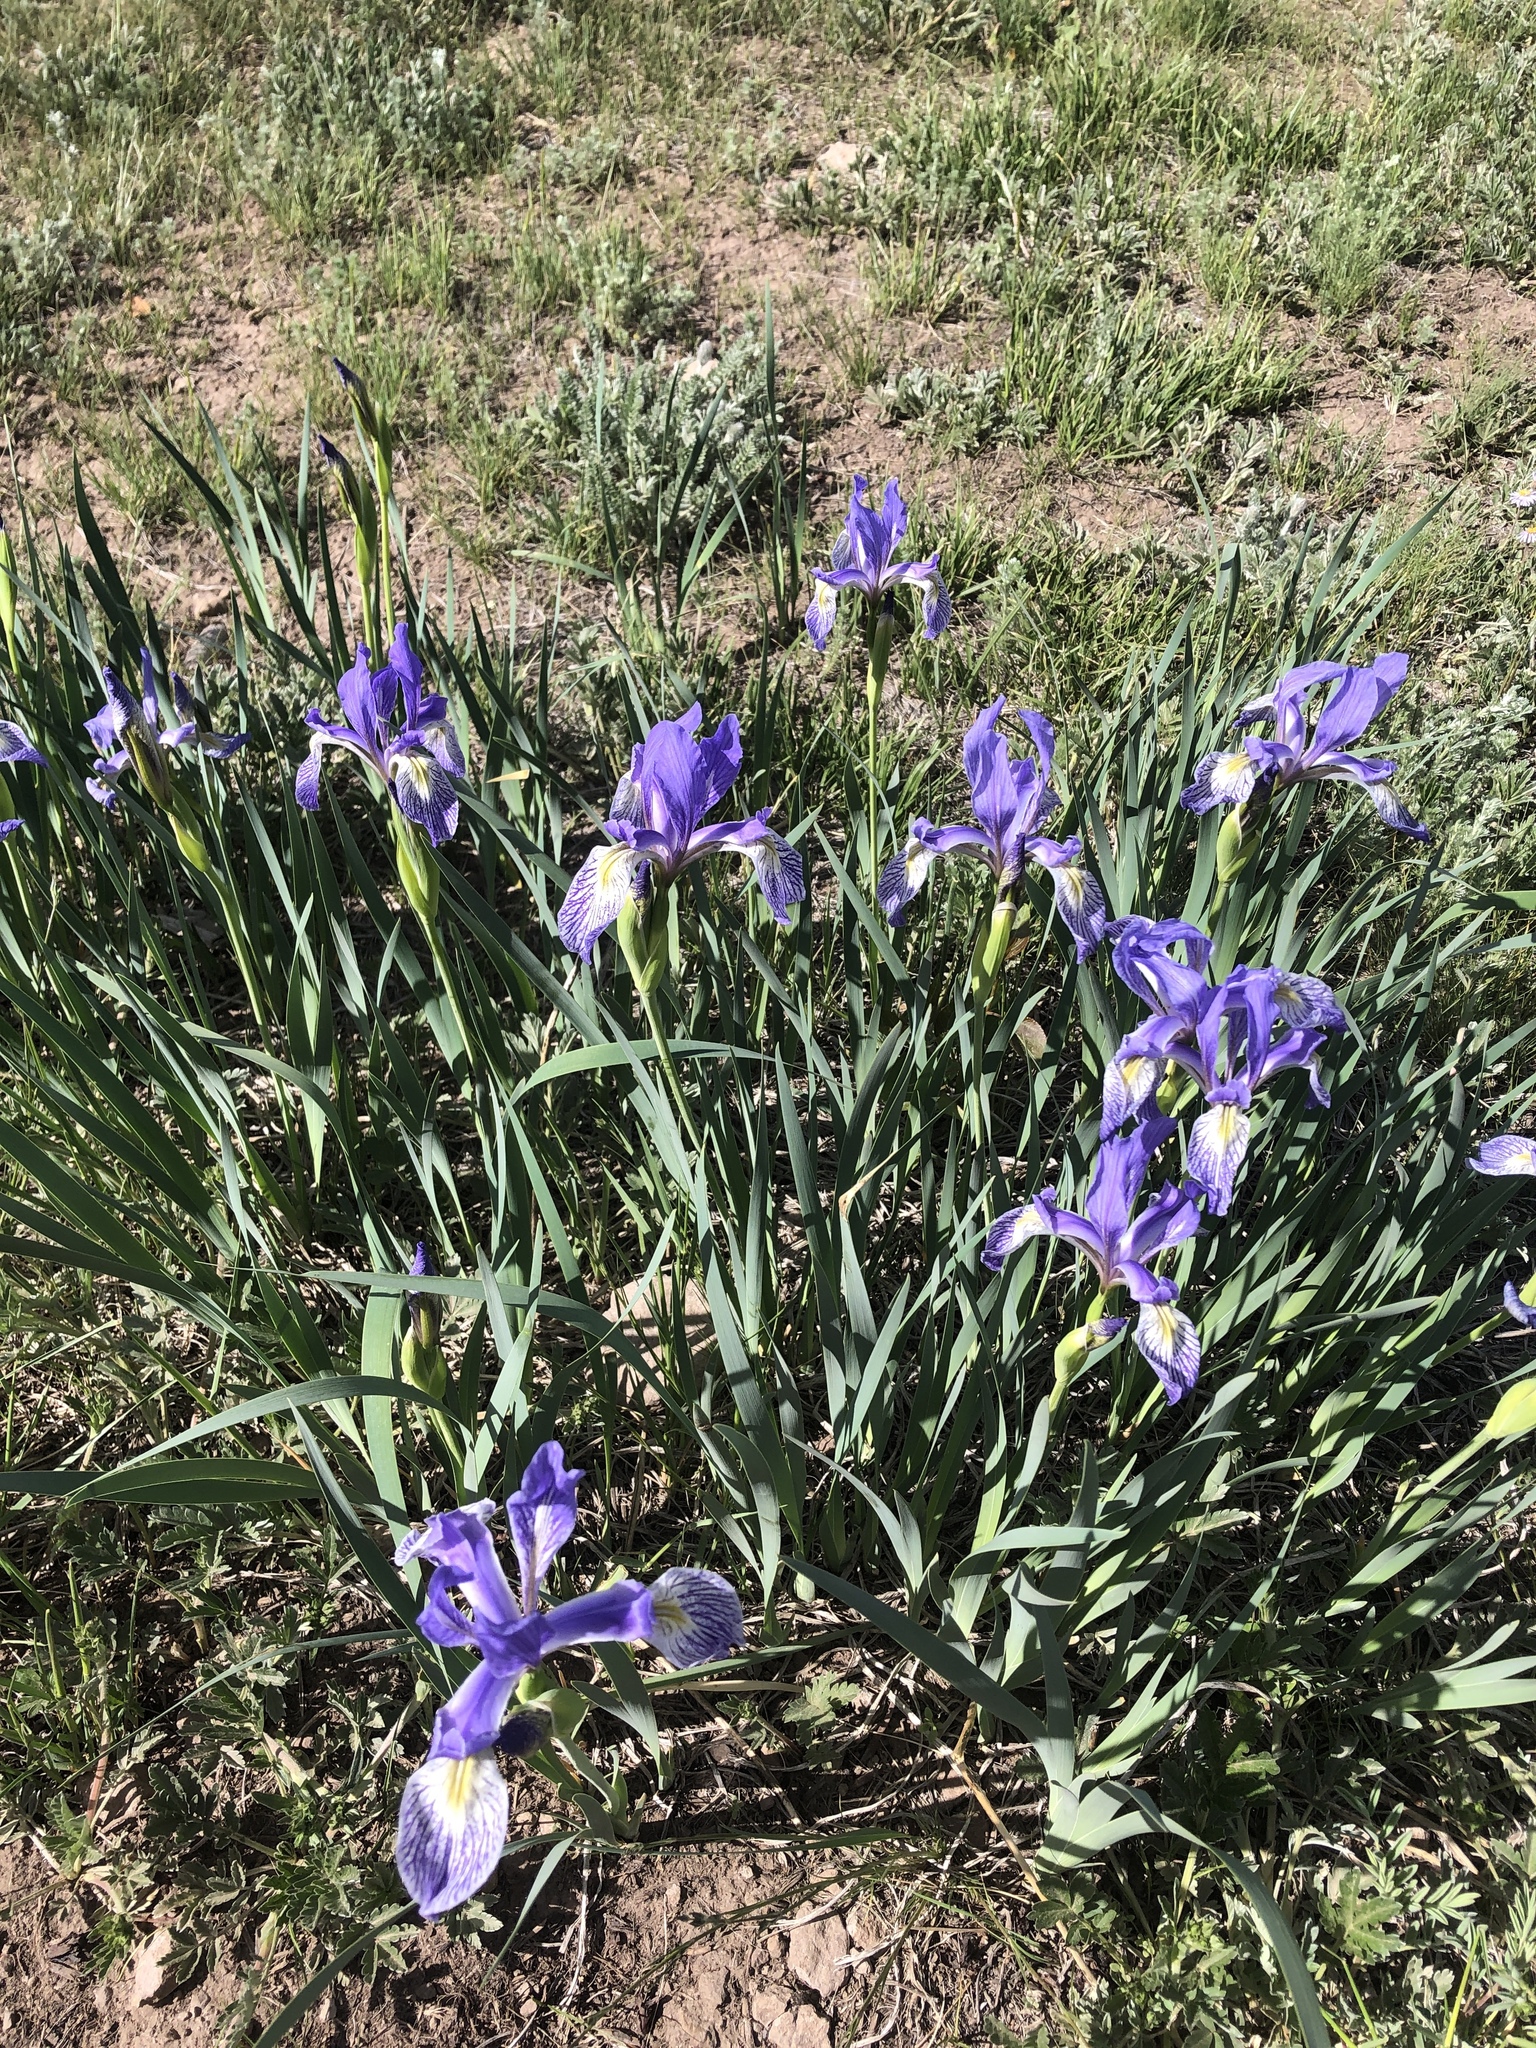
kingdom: Plantae
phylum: Tracheophyta
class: Liliopsida
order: Asparagales
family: Iridaceae
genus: Iris
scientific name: Iris missouriensis
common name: Rocky mountain iris
